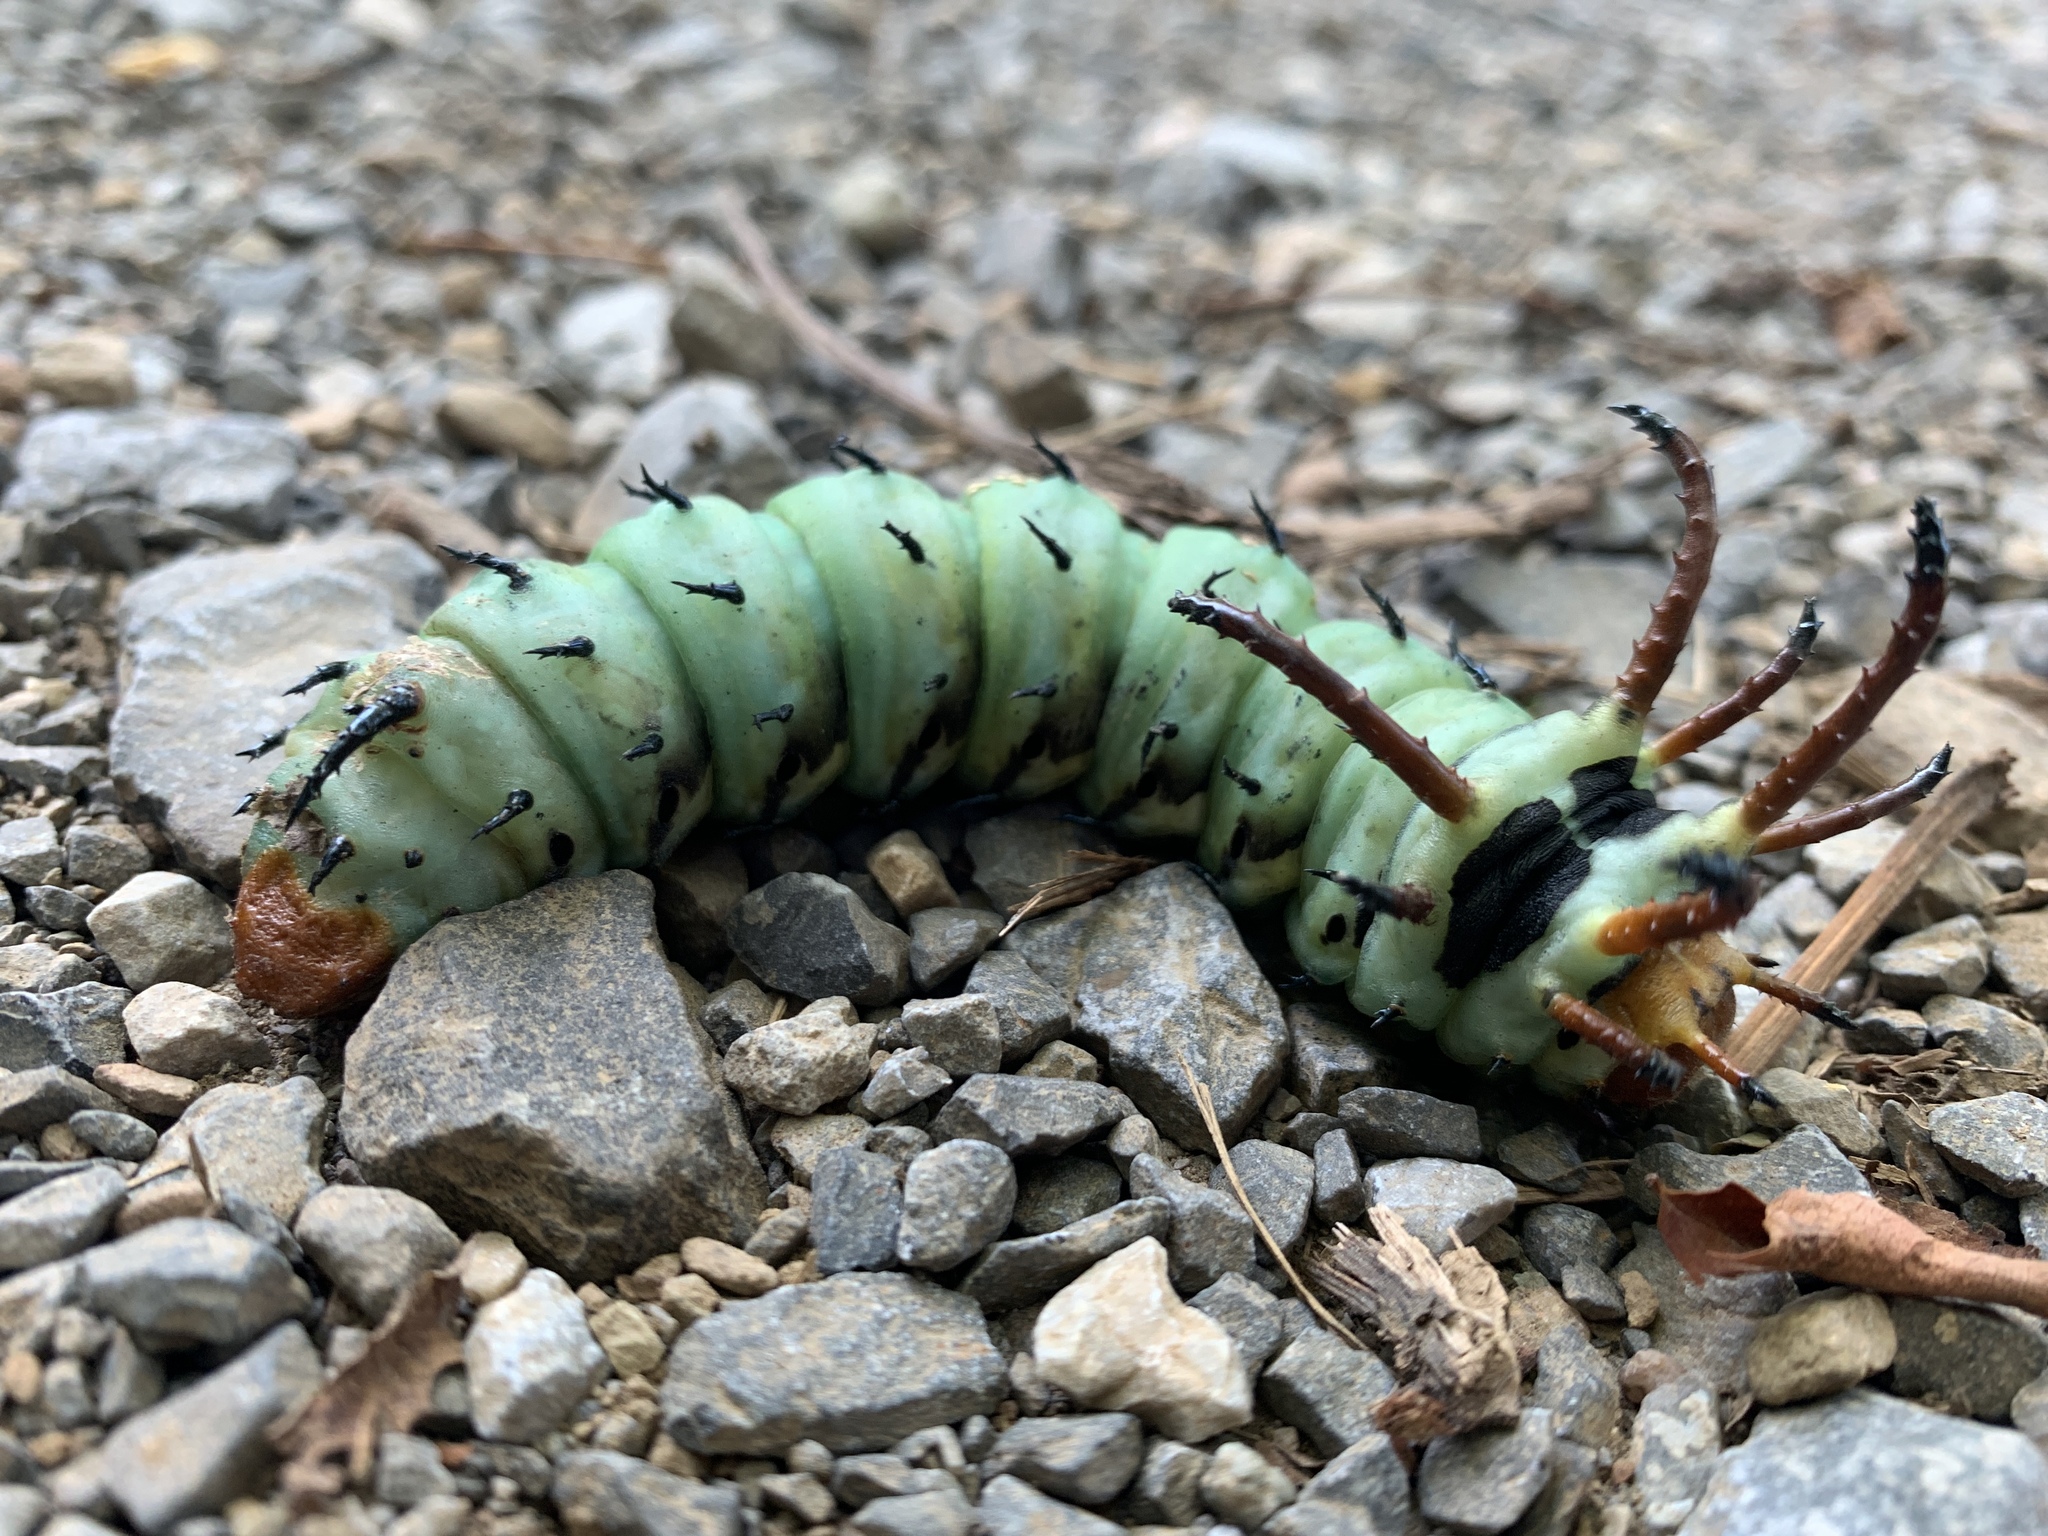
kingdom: Animalia
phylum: Arthropoda
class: Insecta
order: Lepidoptera
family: Saturniidae
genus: Citheronia
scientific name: Citheronia regalis
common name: Hickory horned devil
